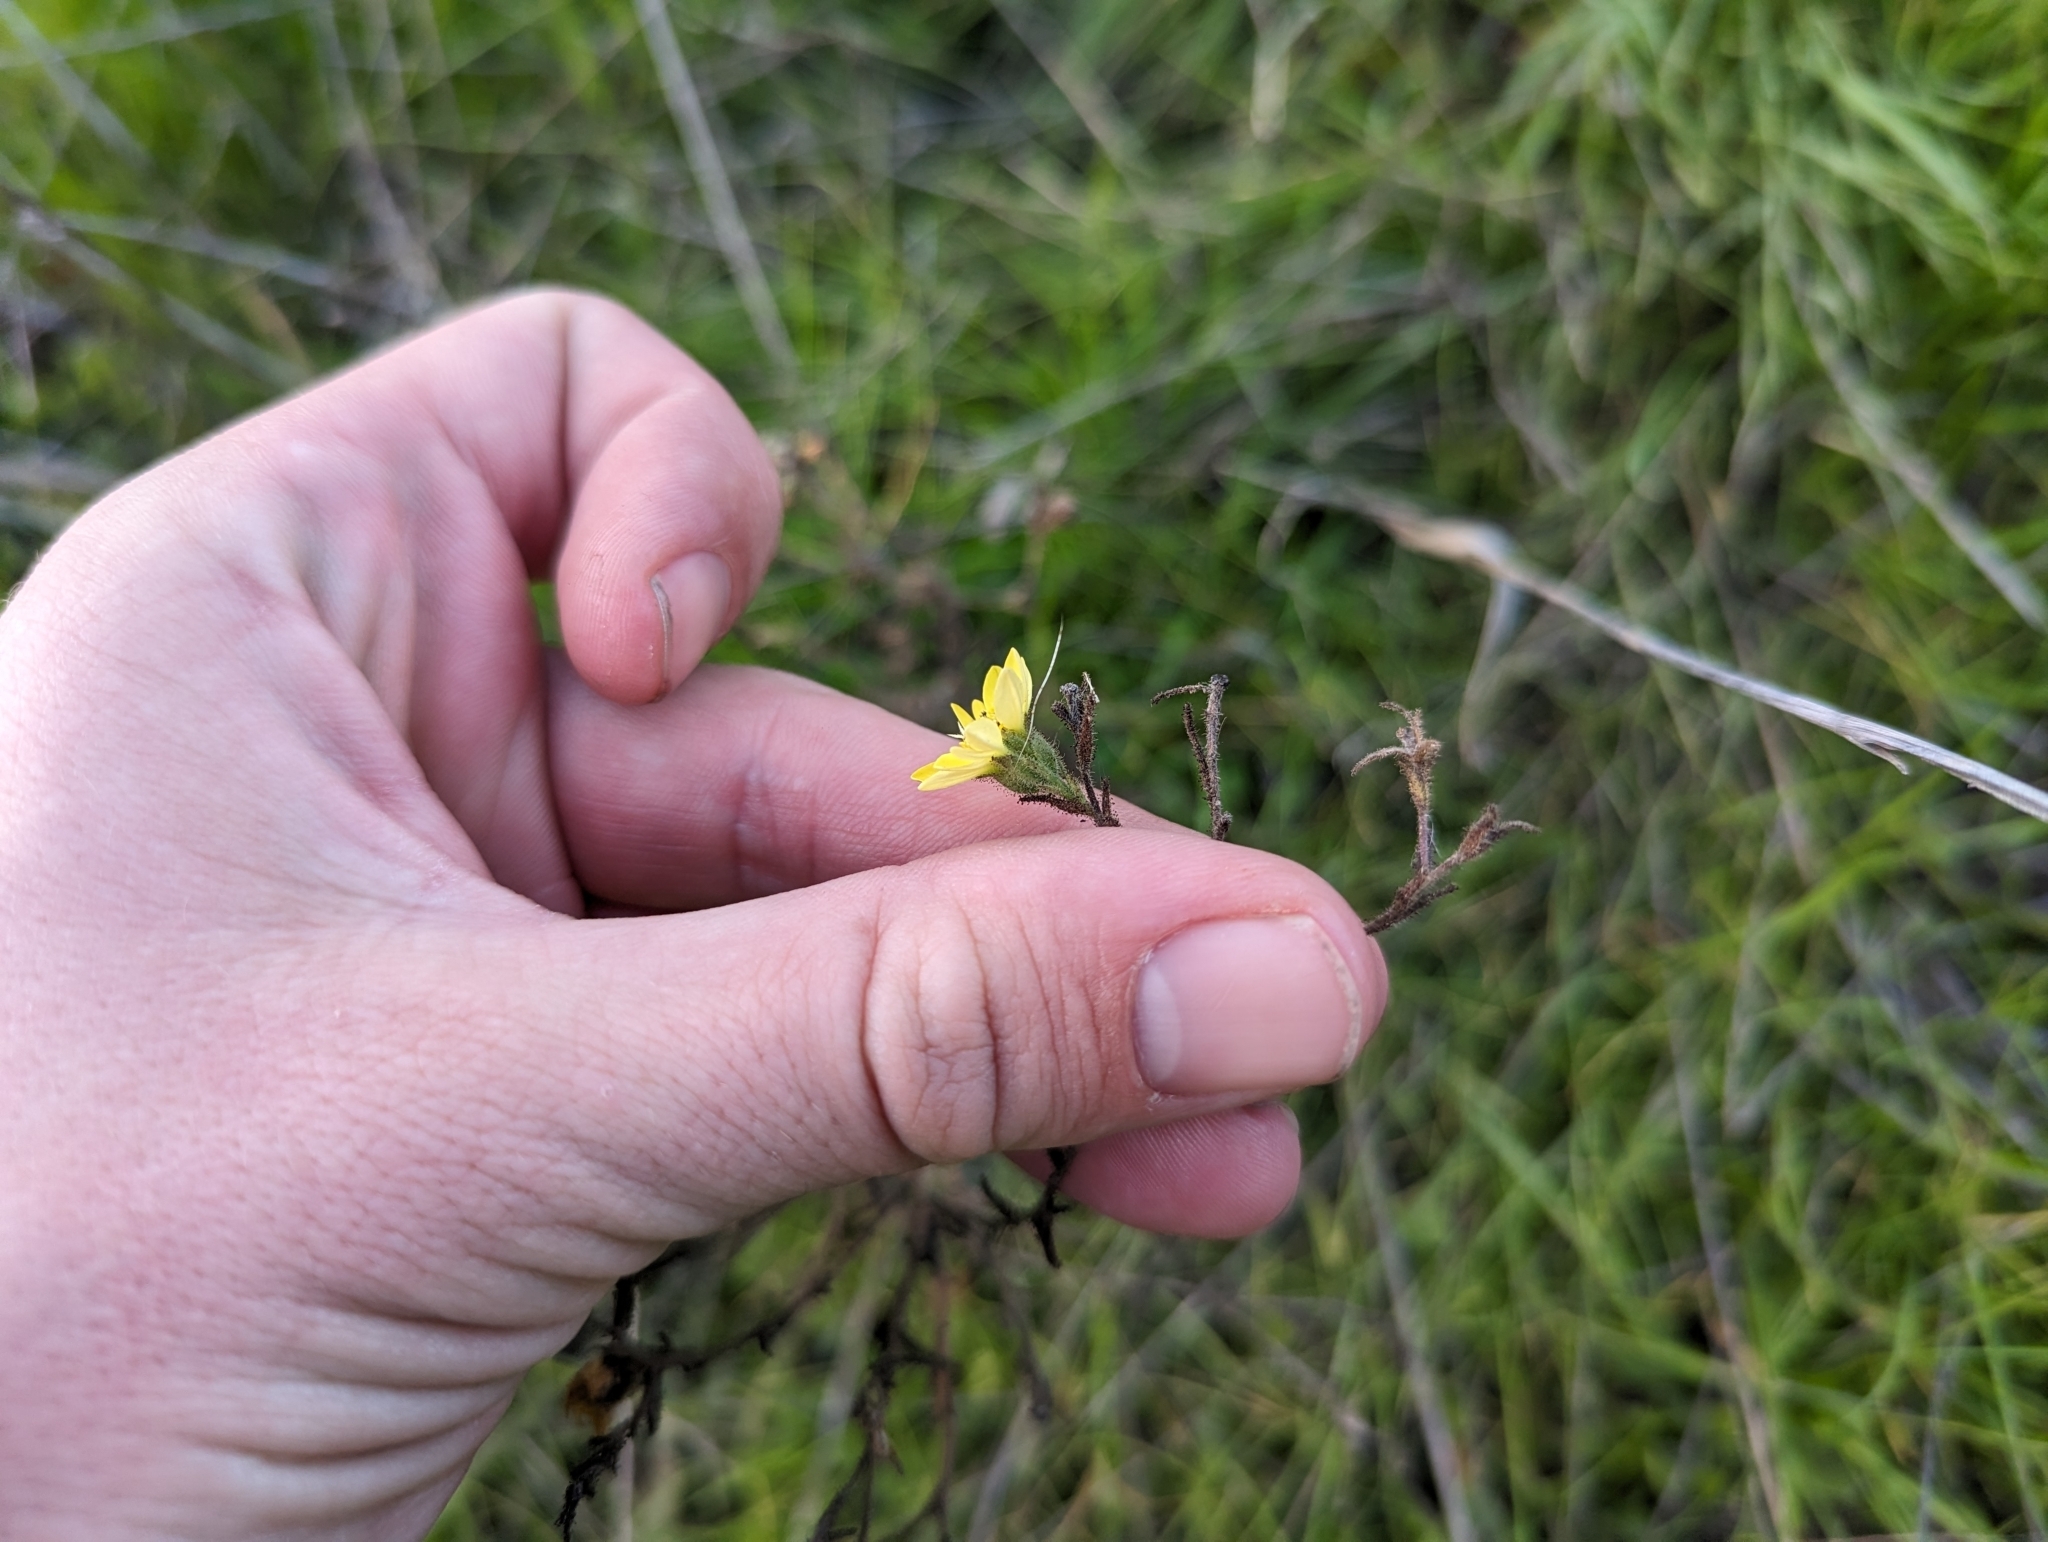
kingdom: Plantae
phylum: Tracheophyta
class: Magnoliopsida
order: Asterales
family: Asteraceae
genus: Hemizonia
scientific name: Hemizonia congesta
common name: Hayfield tarweed
